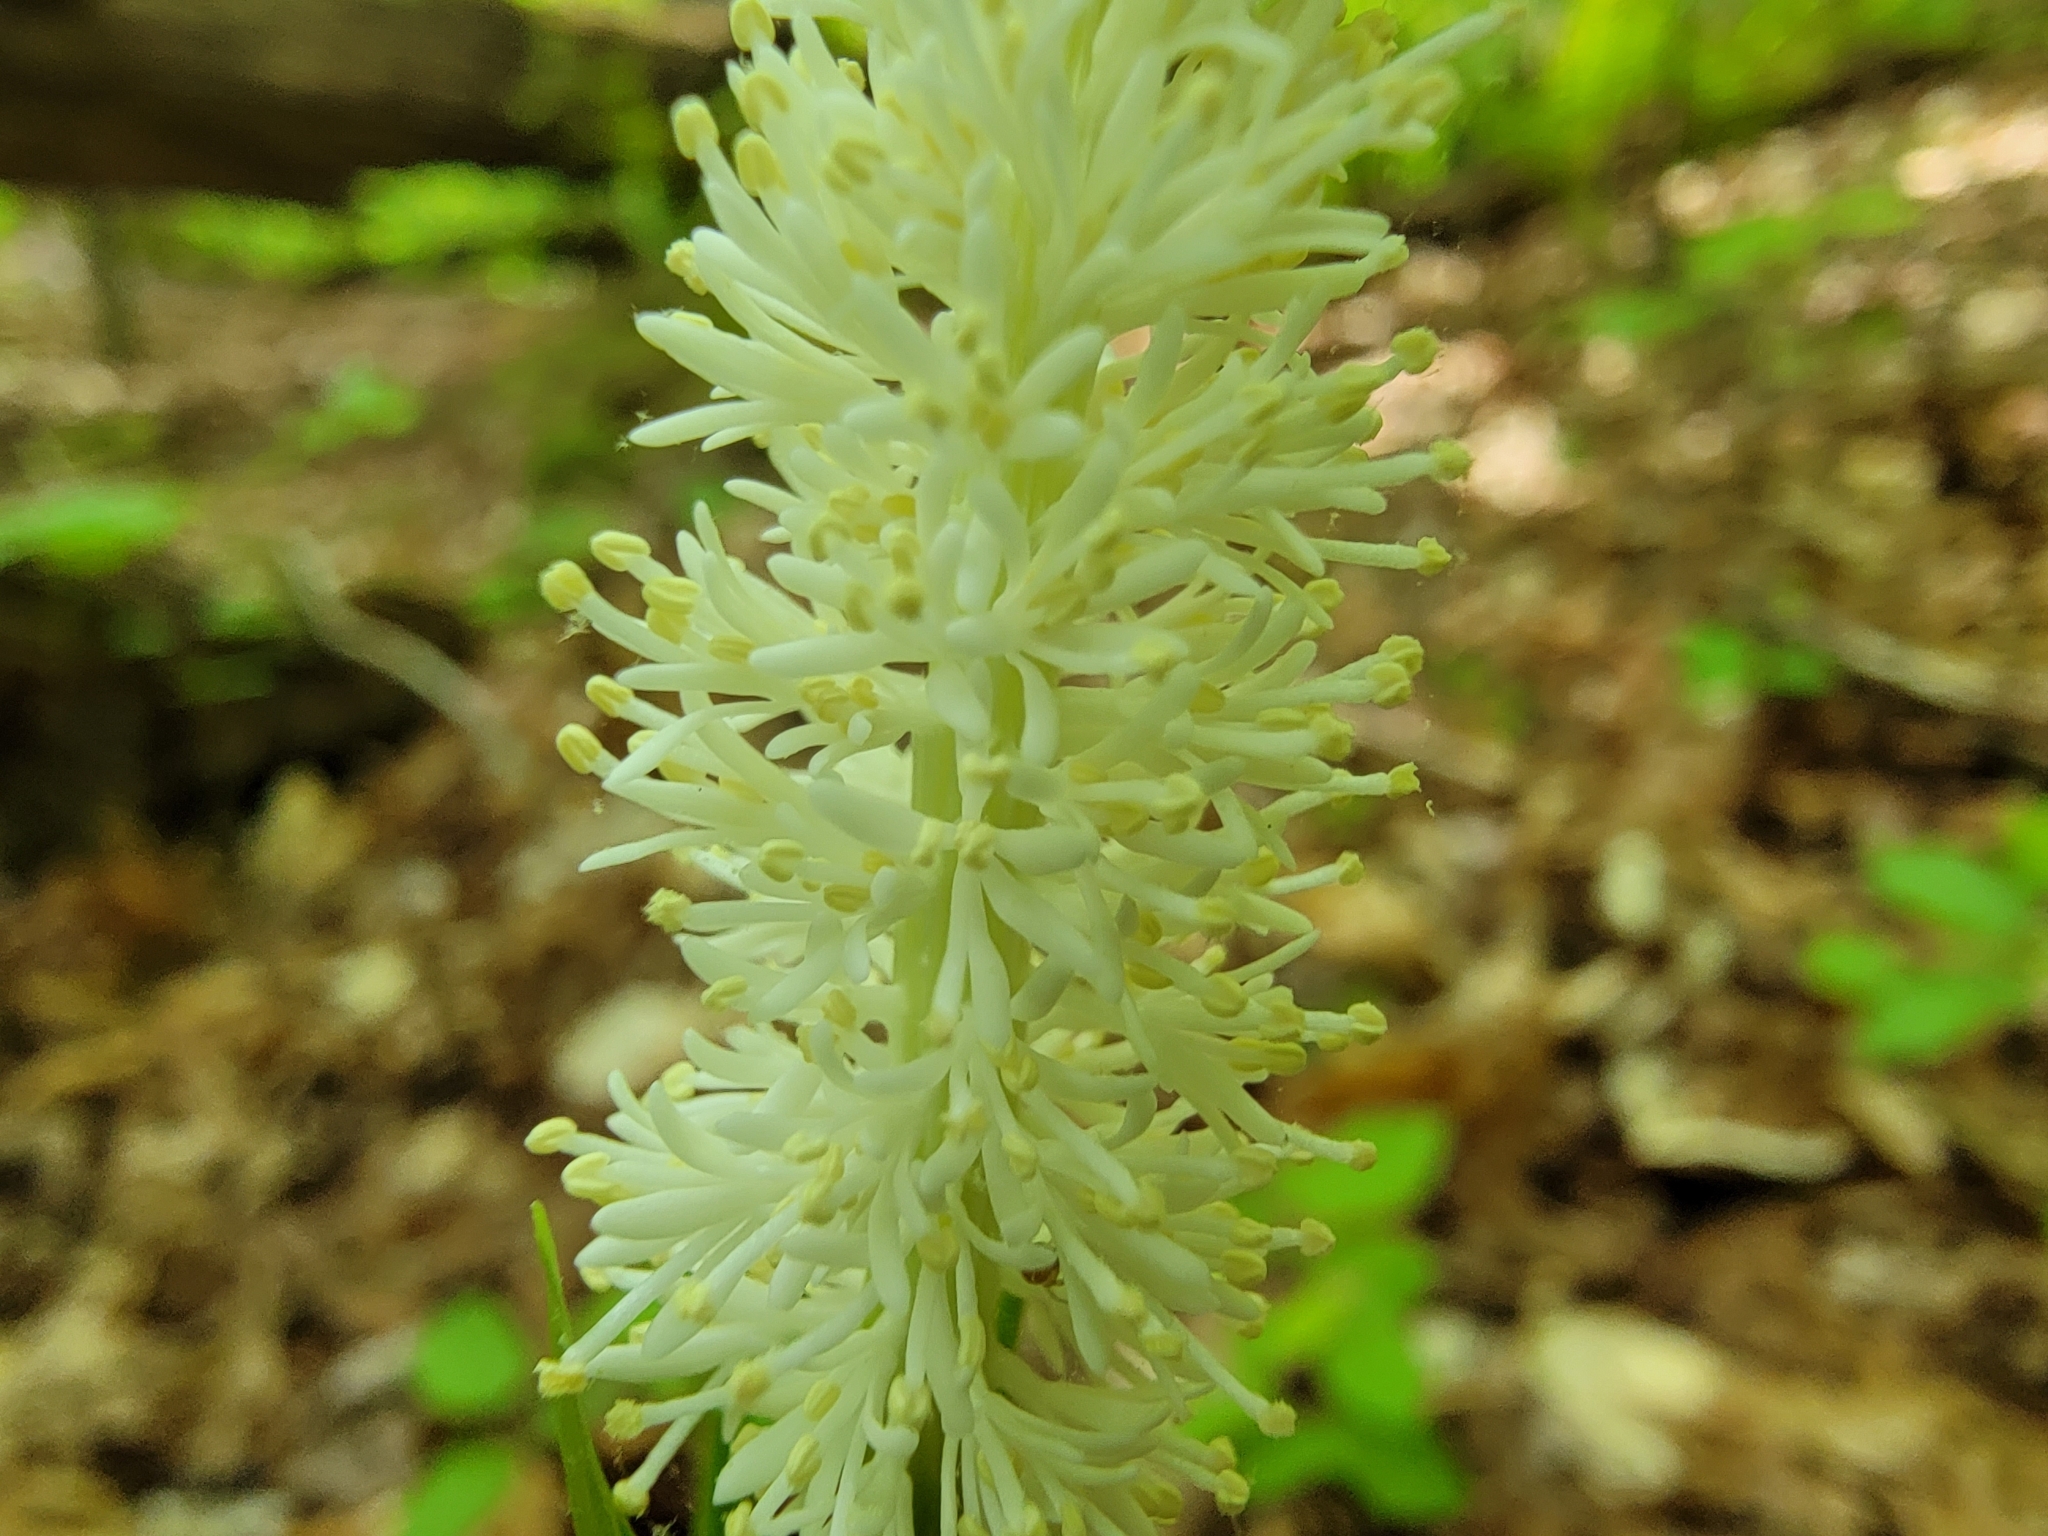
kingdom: Plantae
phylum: Tracheophyta
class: Liliopsida
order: Liliales
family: Melanthiaceae
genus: Chamaelirium
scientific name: Chamaelirium luteum
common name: Fairy-wand
